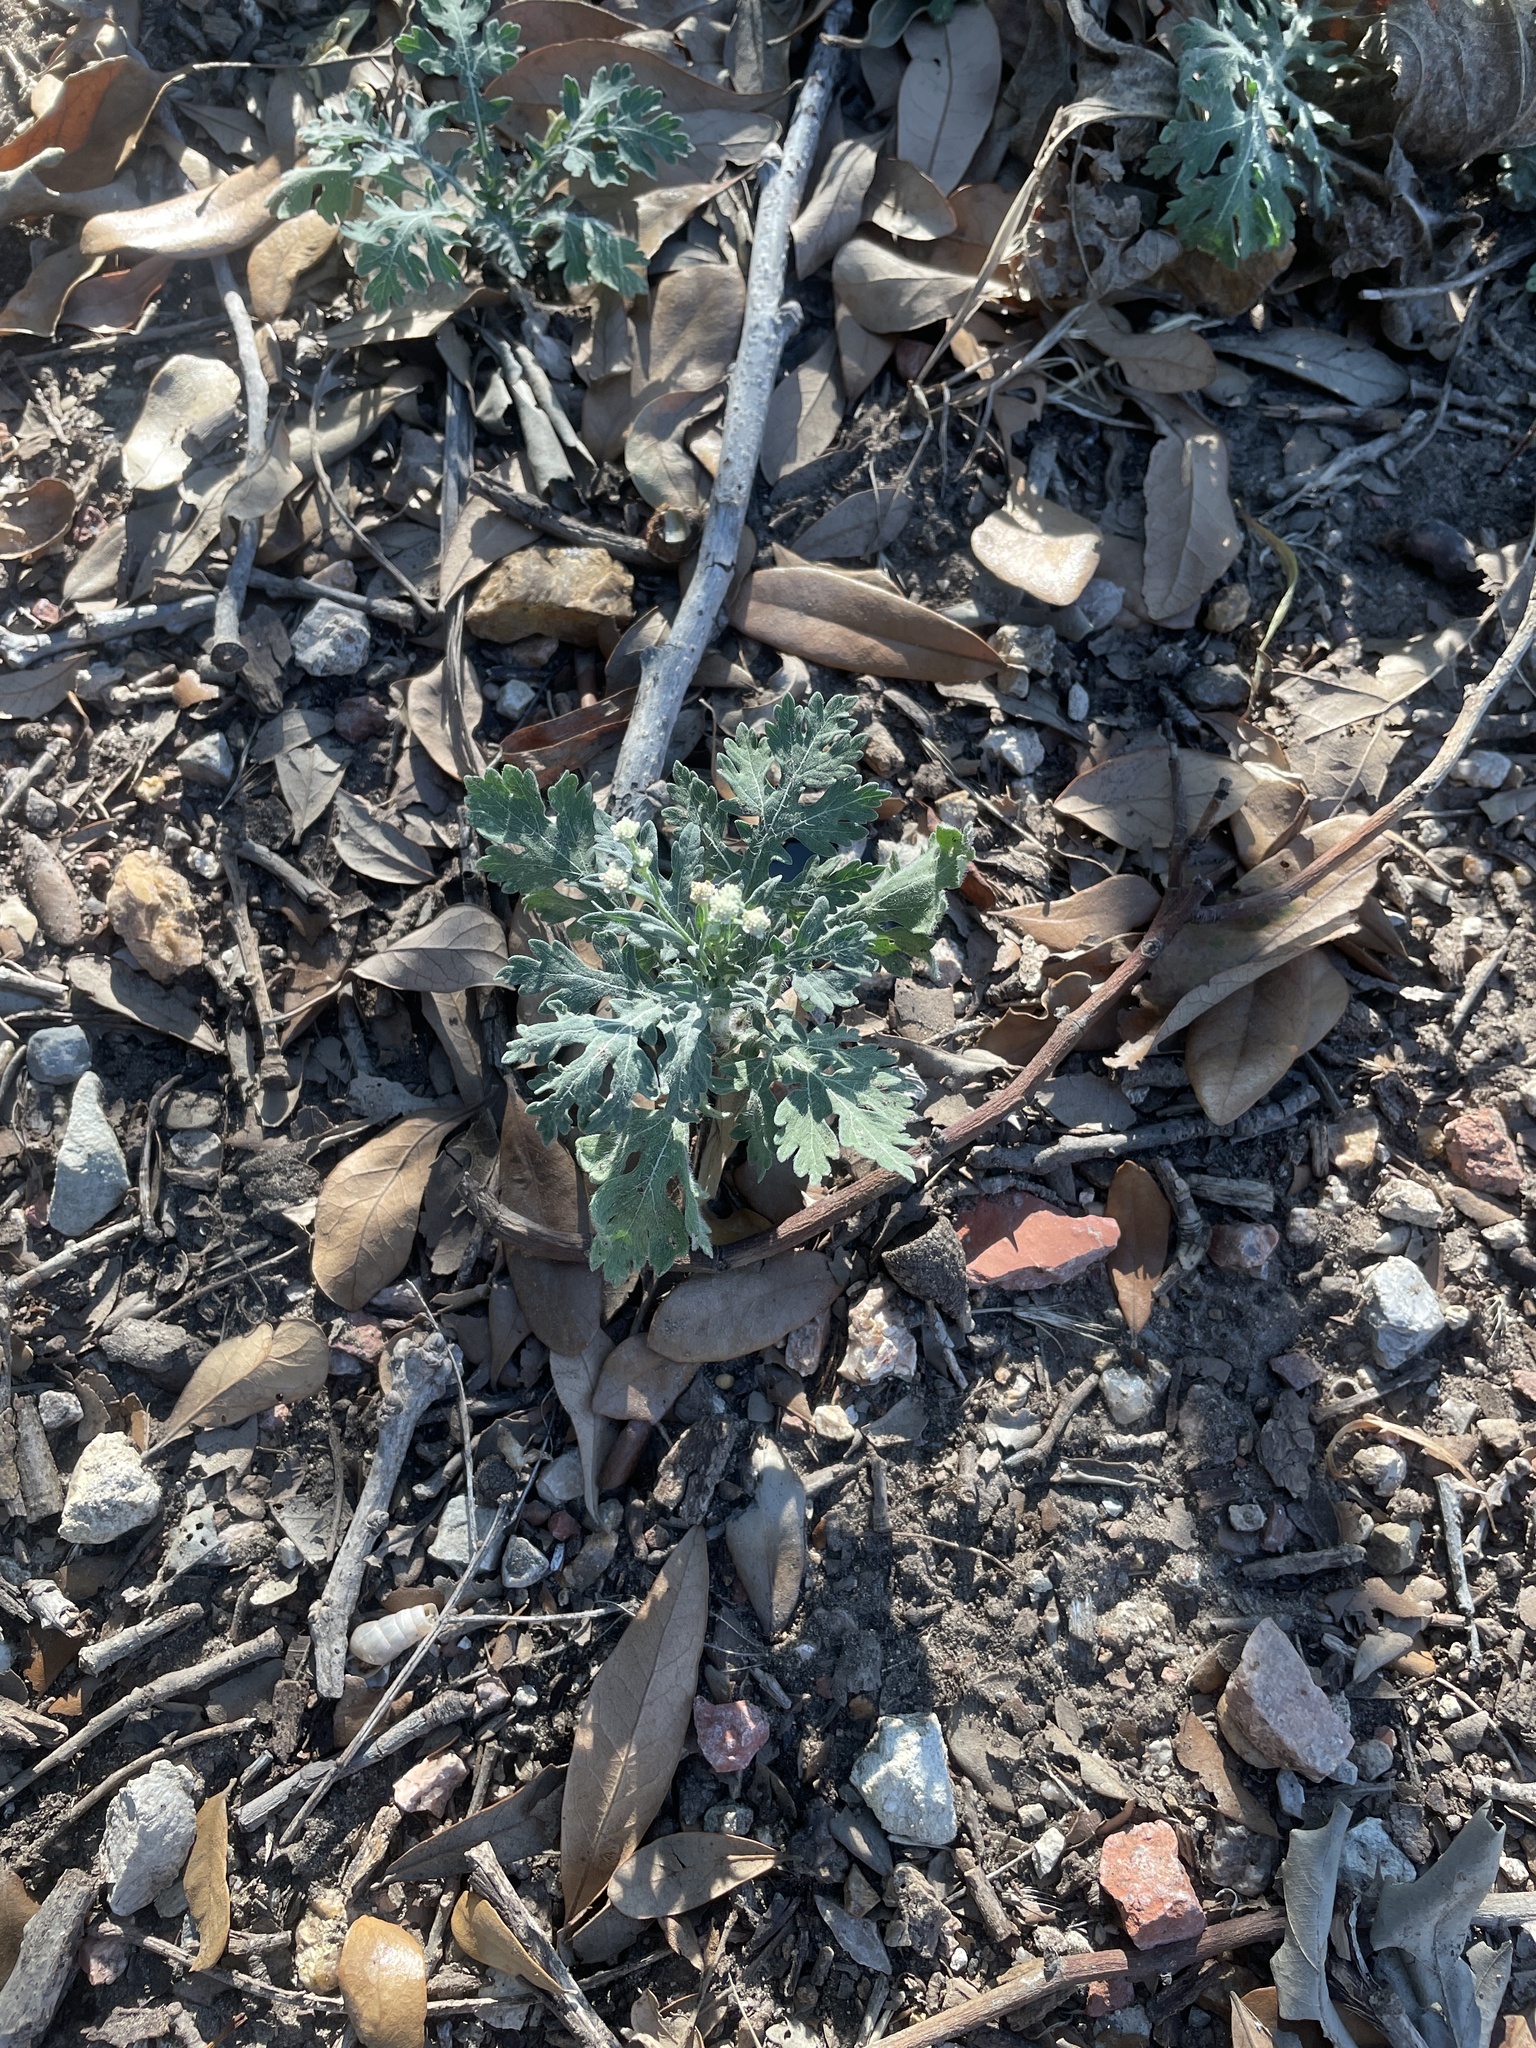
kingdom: Plantae
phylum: Tracheophyta
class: Magnoliopsida
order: Asterales
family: Asteraceae
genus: Parthenium
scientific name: Parthenium hysterophorus
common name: Santa maria feverfew
